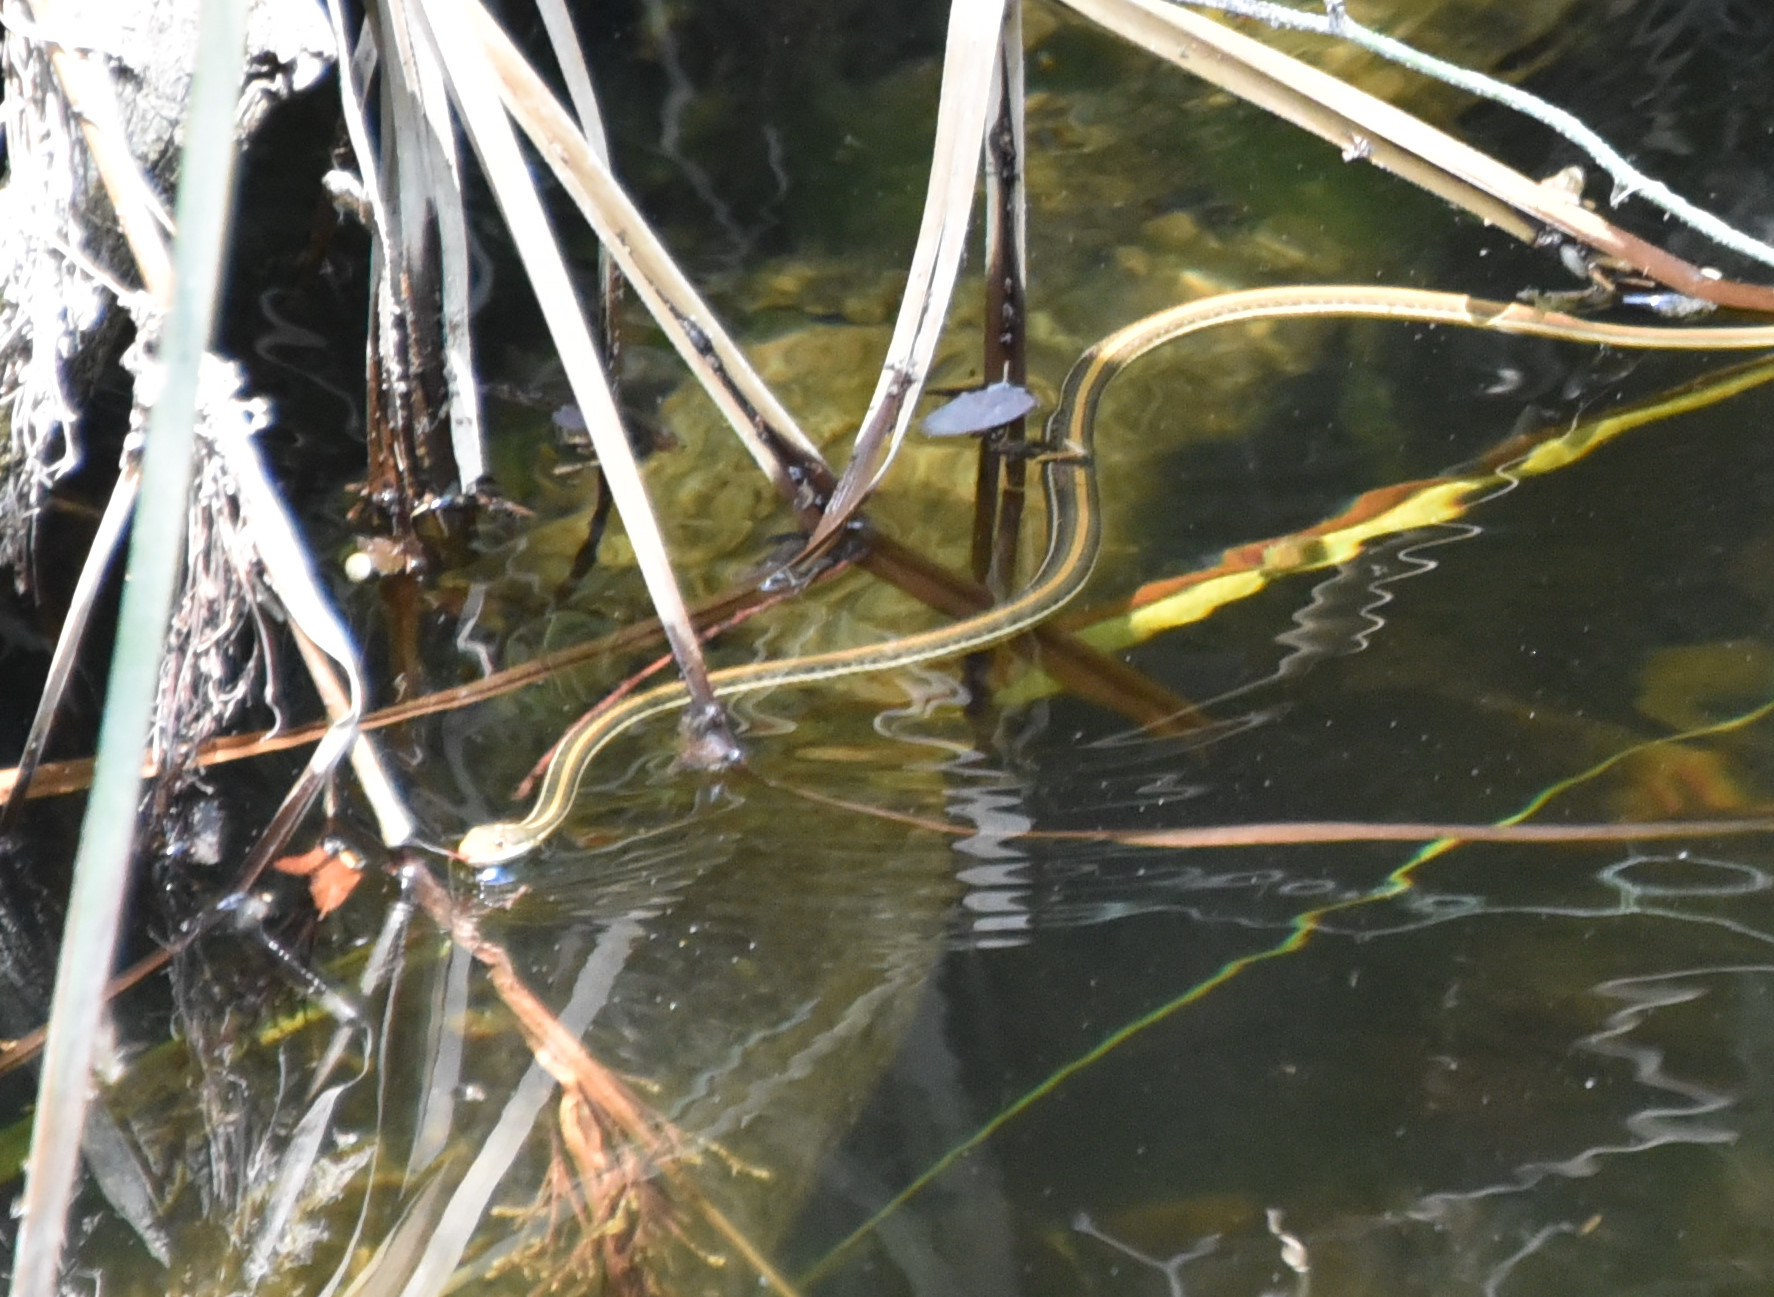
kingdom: Animalia
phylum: Chordata
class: Squamata
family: Colubridae
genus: Thamnophis
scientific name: Thamnophis proximus
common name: Western ribbon snake
